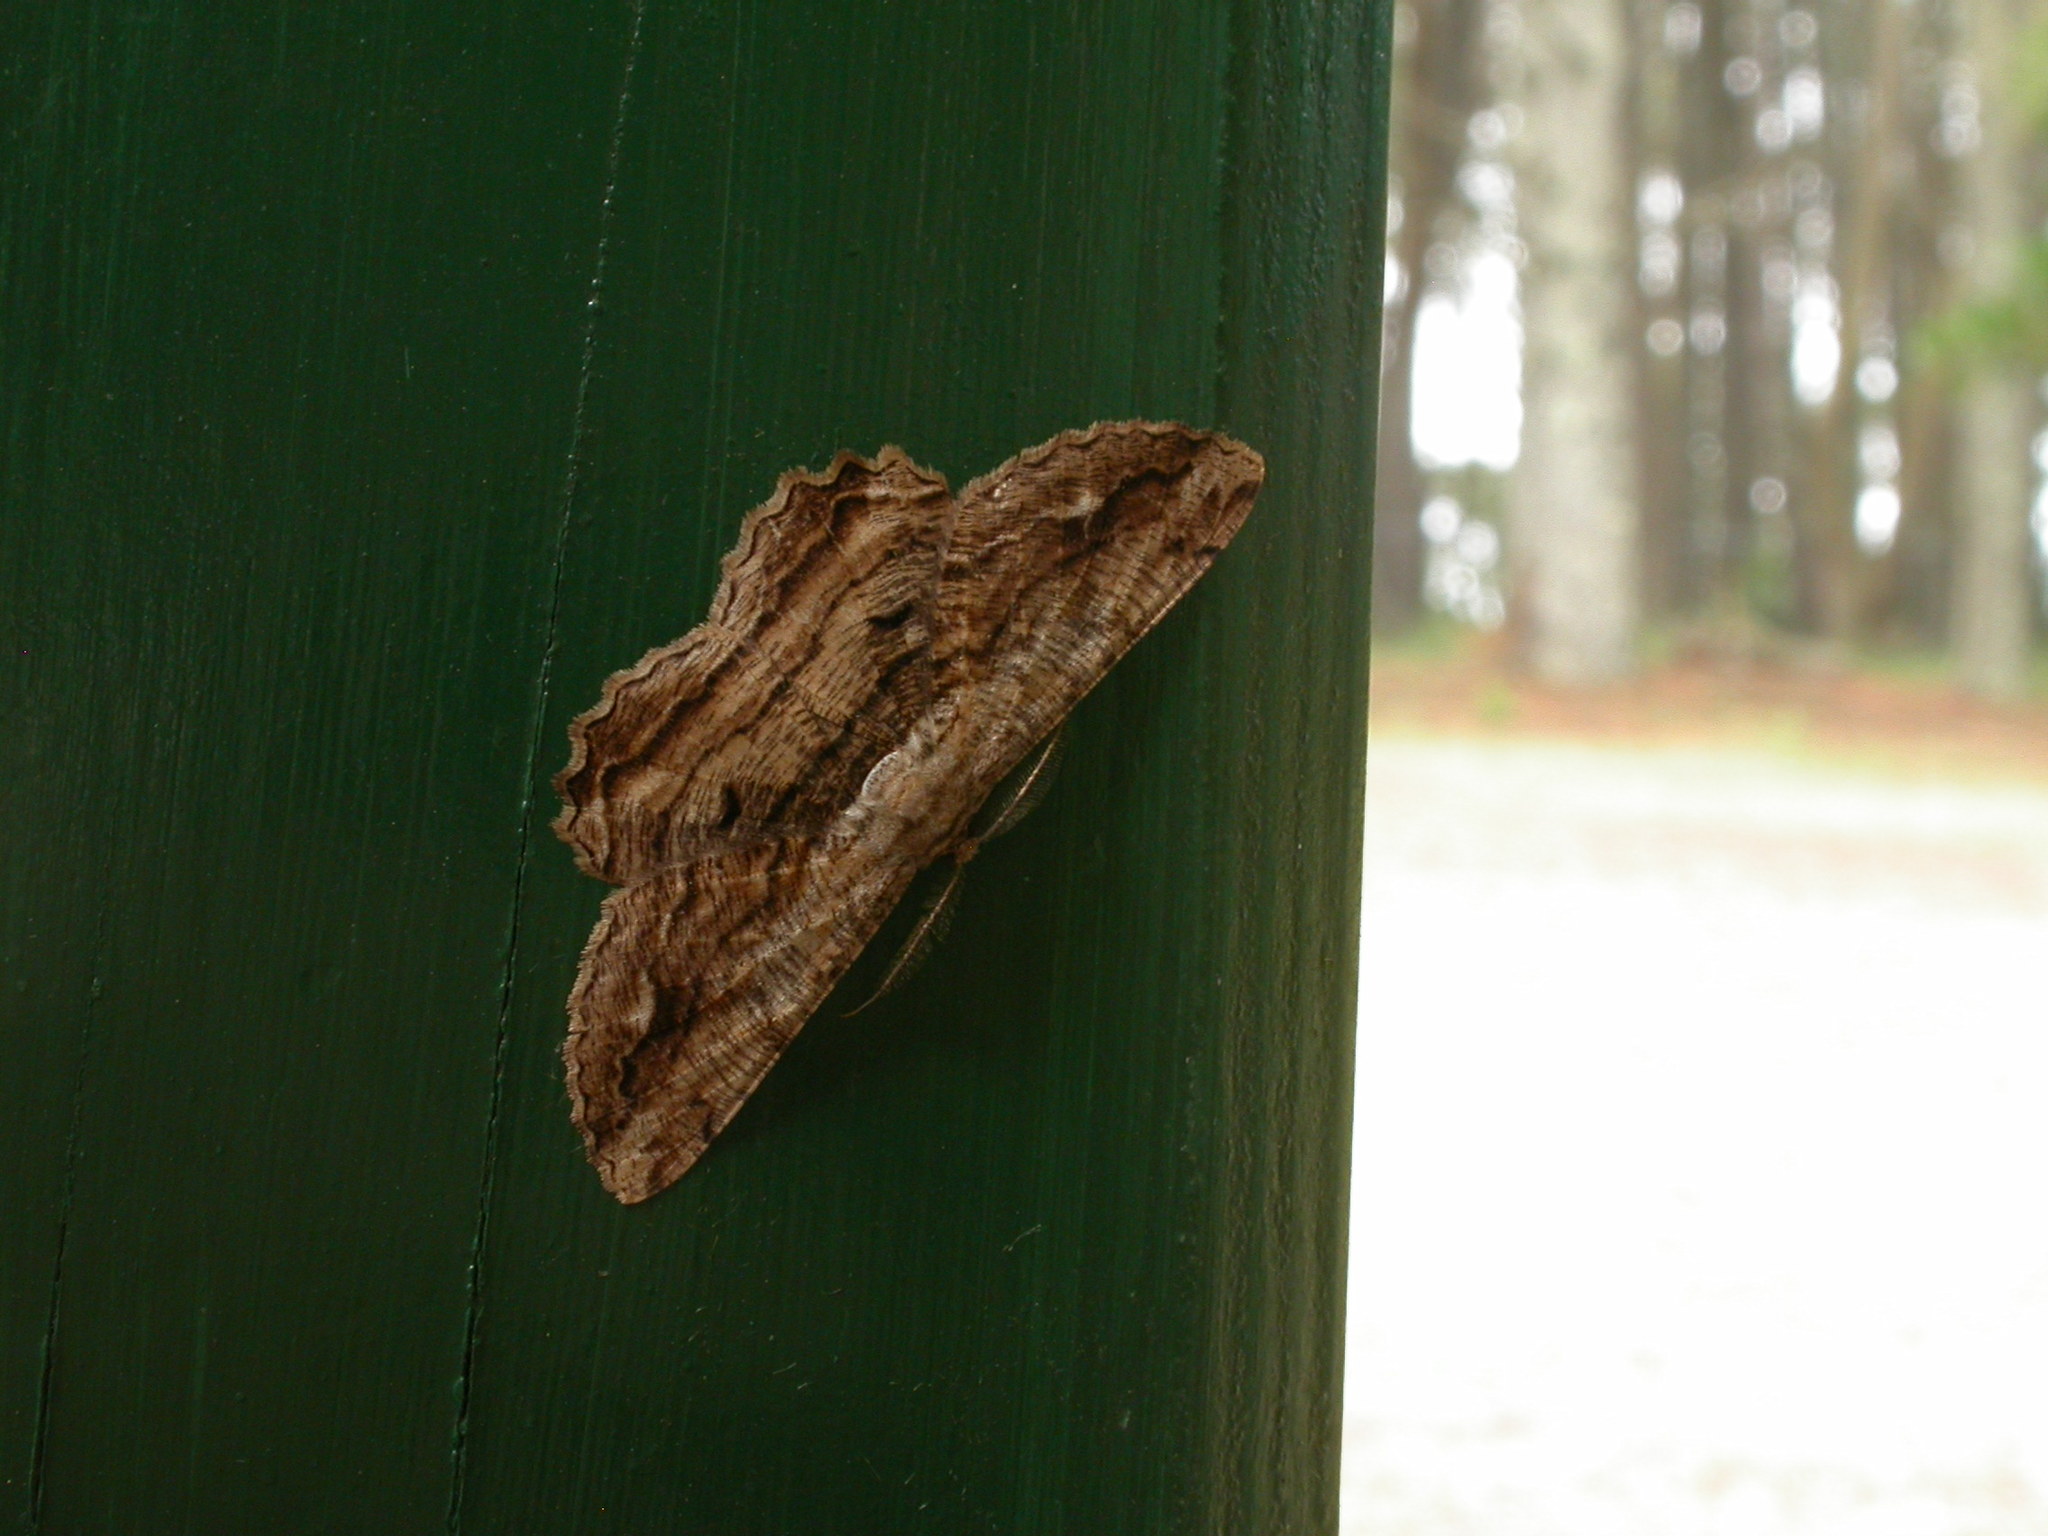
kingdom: Animalia
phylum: Arthropoda
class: Insecta
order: Lepidoptera
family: Geometridae
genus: Scioglyptis
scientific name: Scioglyptis lyciaria
